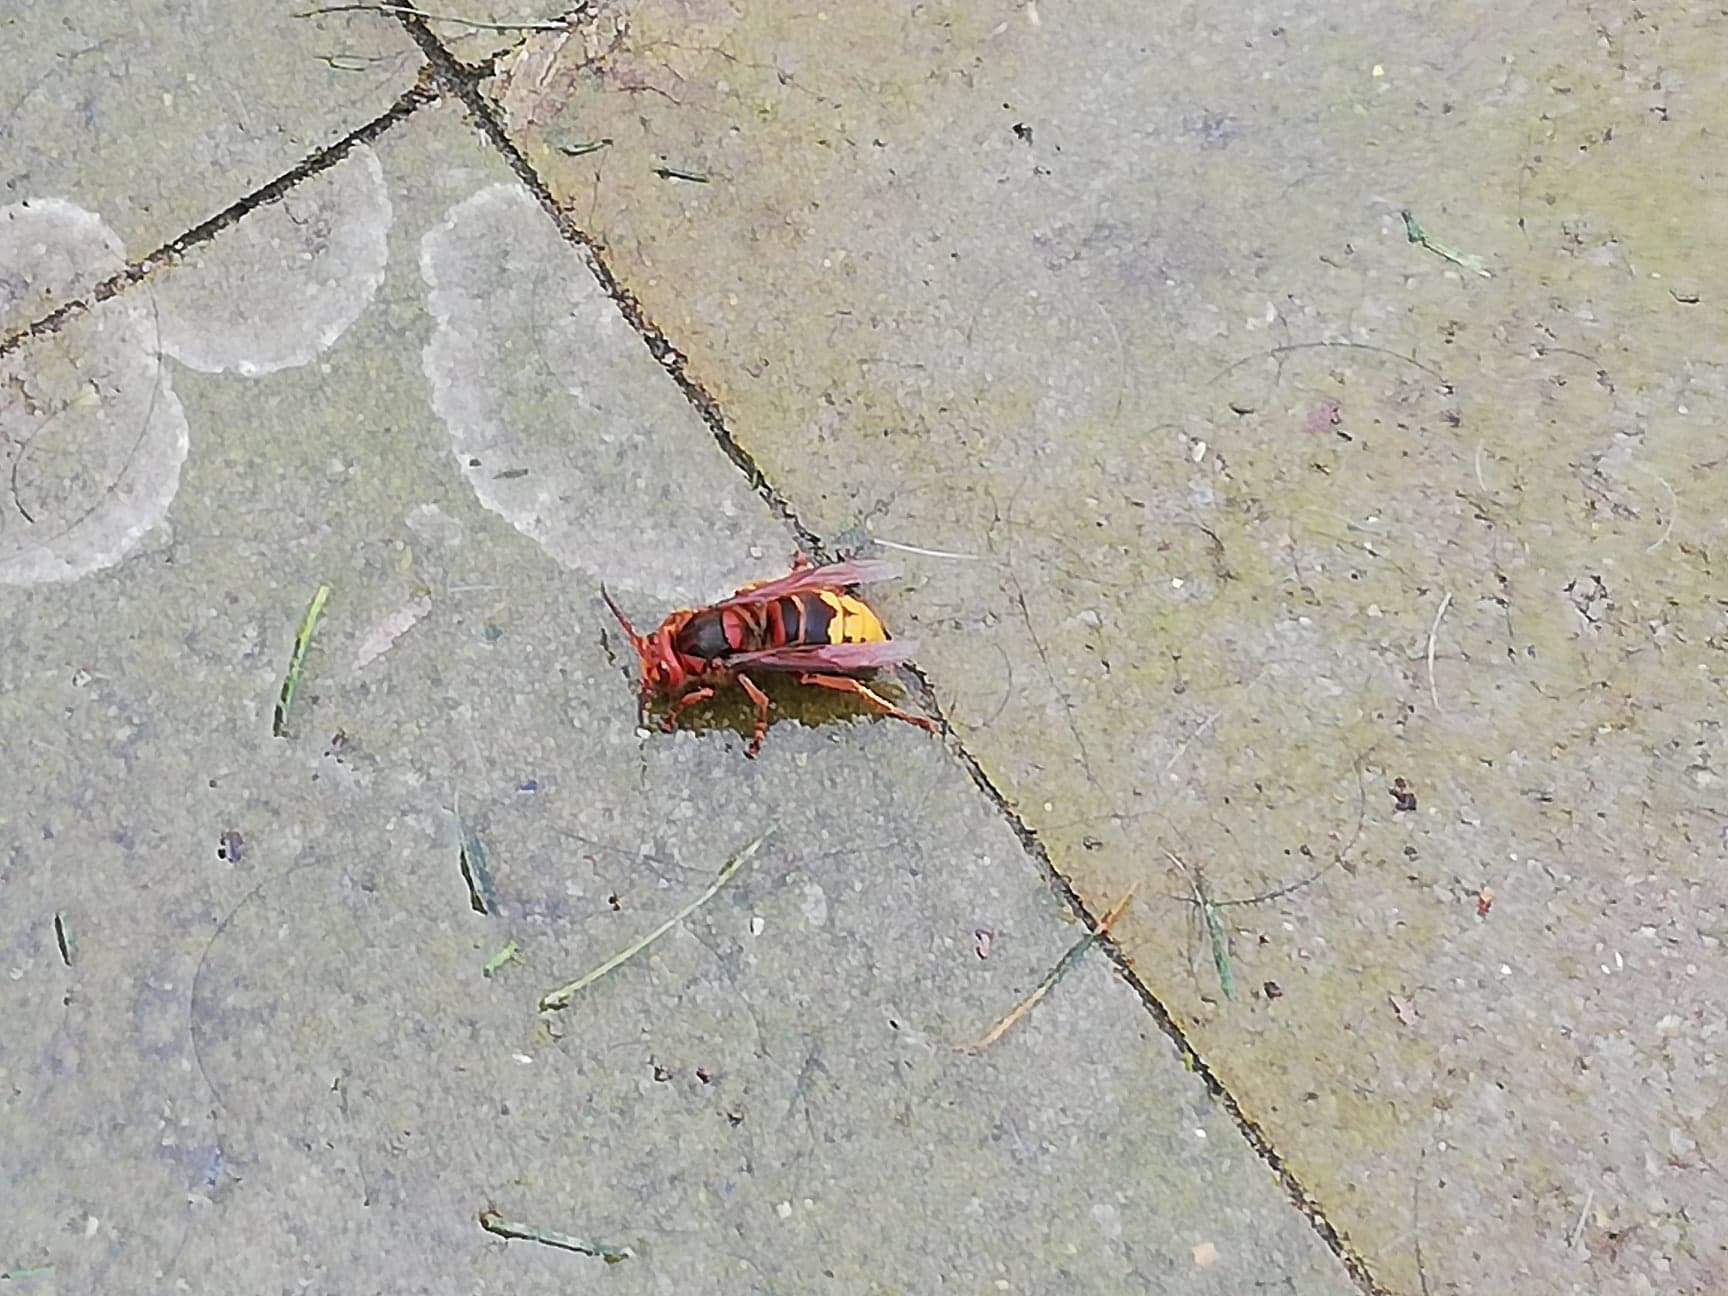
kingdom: Animalia
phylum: Arthropoda
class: Insecta
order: Hymenoptera
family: Vespidae
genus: Vespa
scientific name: Vespa crabro
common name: Hornet
